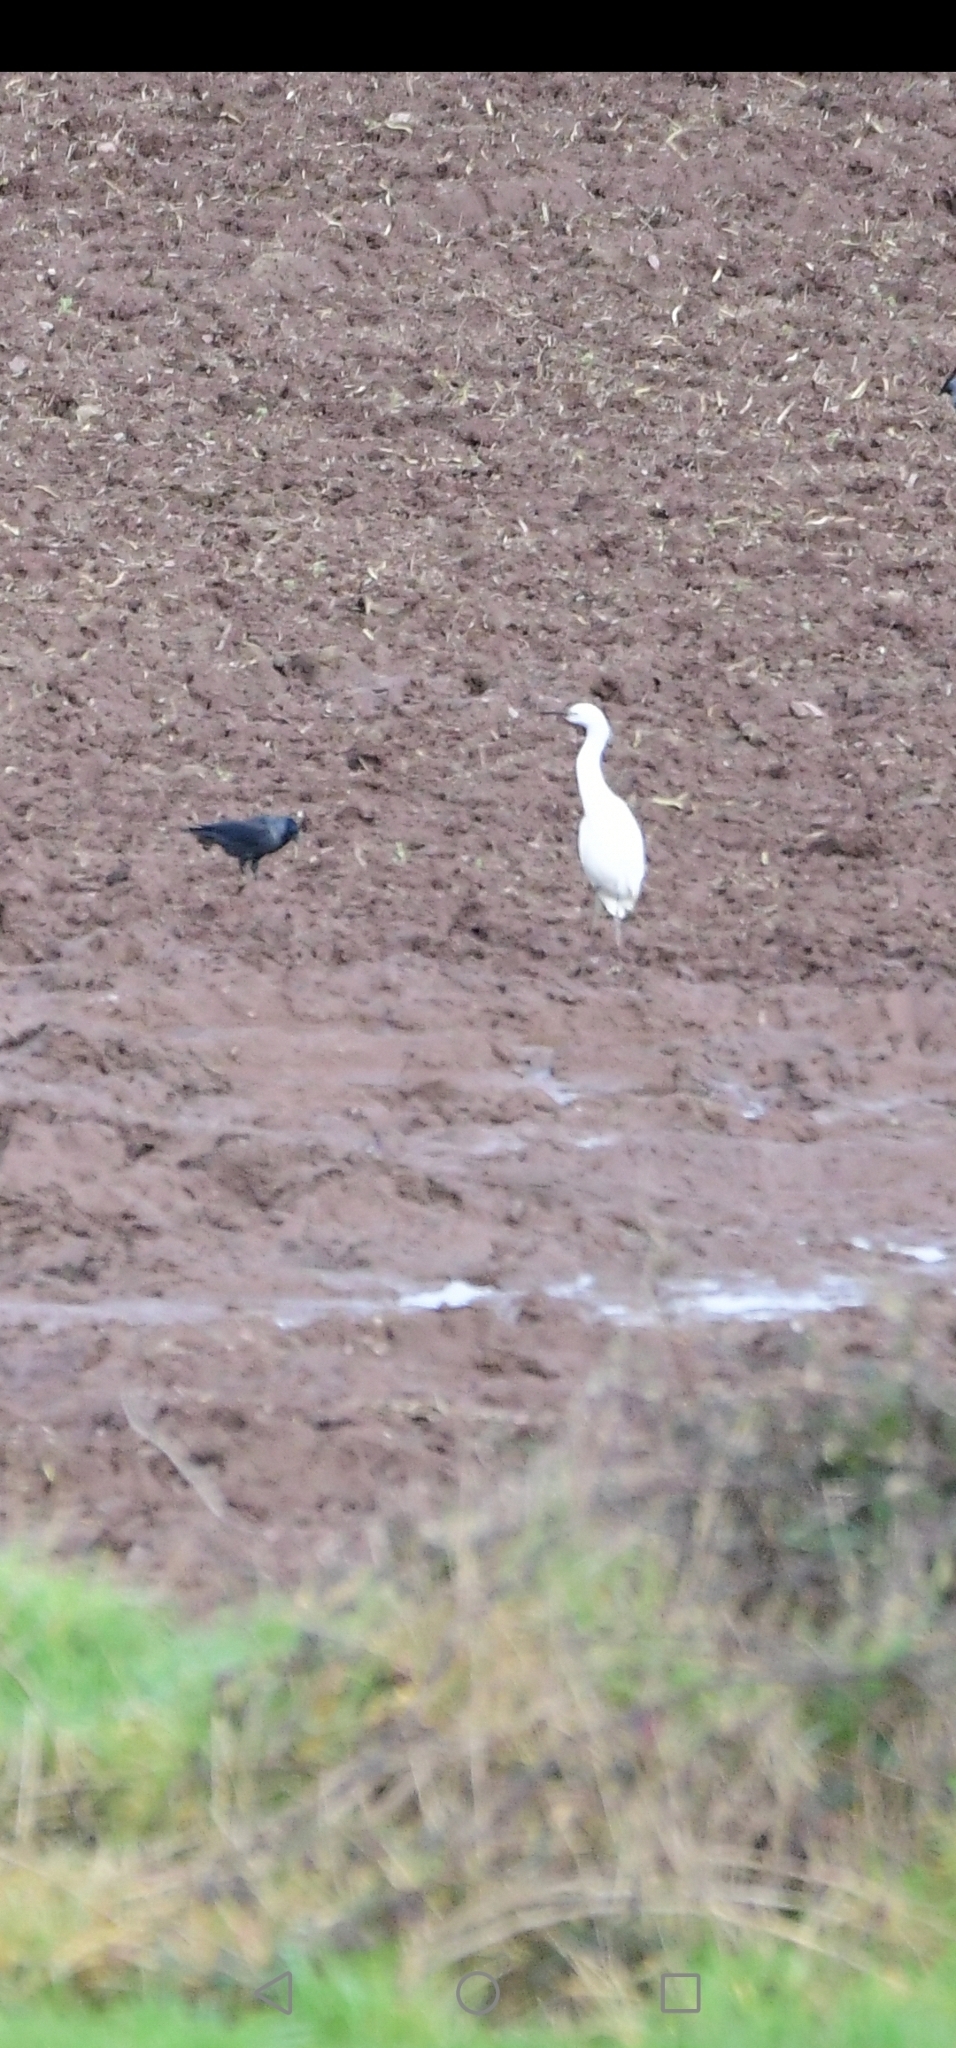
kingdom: Animalia
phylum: Chordata
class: Aves
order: Pelecaniformes
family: Ardeidae
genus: Egretta
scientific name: Egretta garzetta
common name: Little egret
